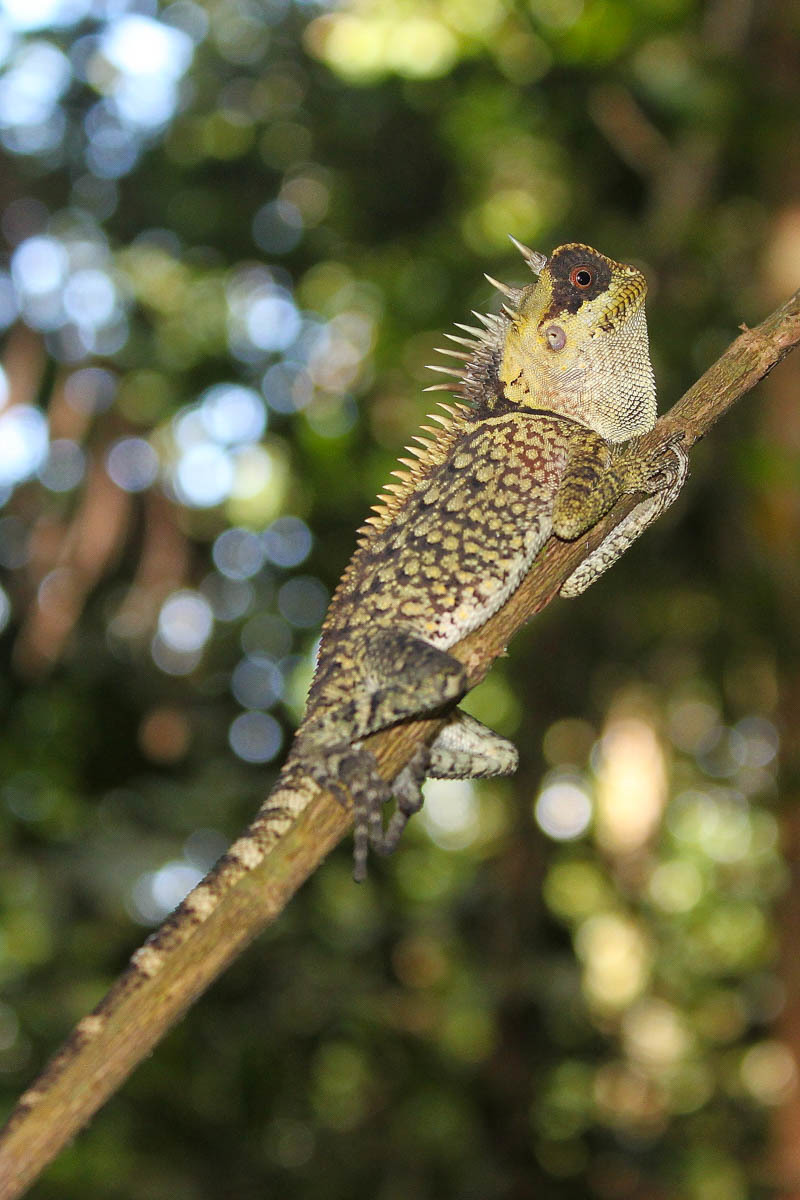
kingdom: Animalia
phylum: Chordata
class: Squamata
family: Agamidae
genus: Acanthosaura
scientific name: Acanthosaura cardamomensis
